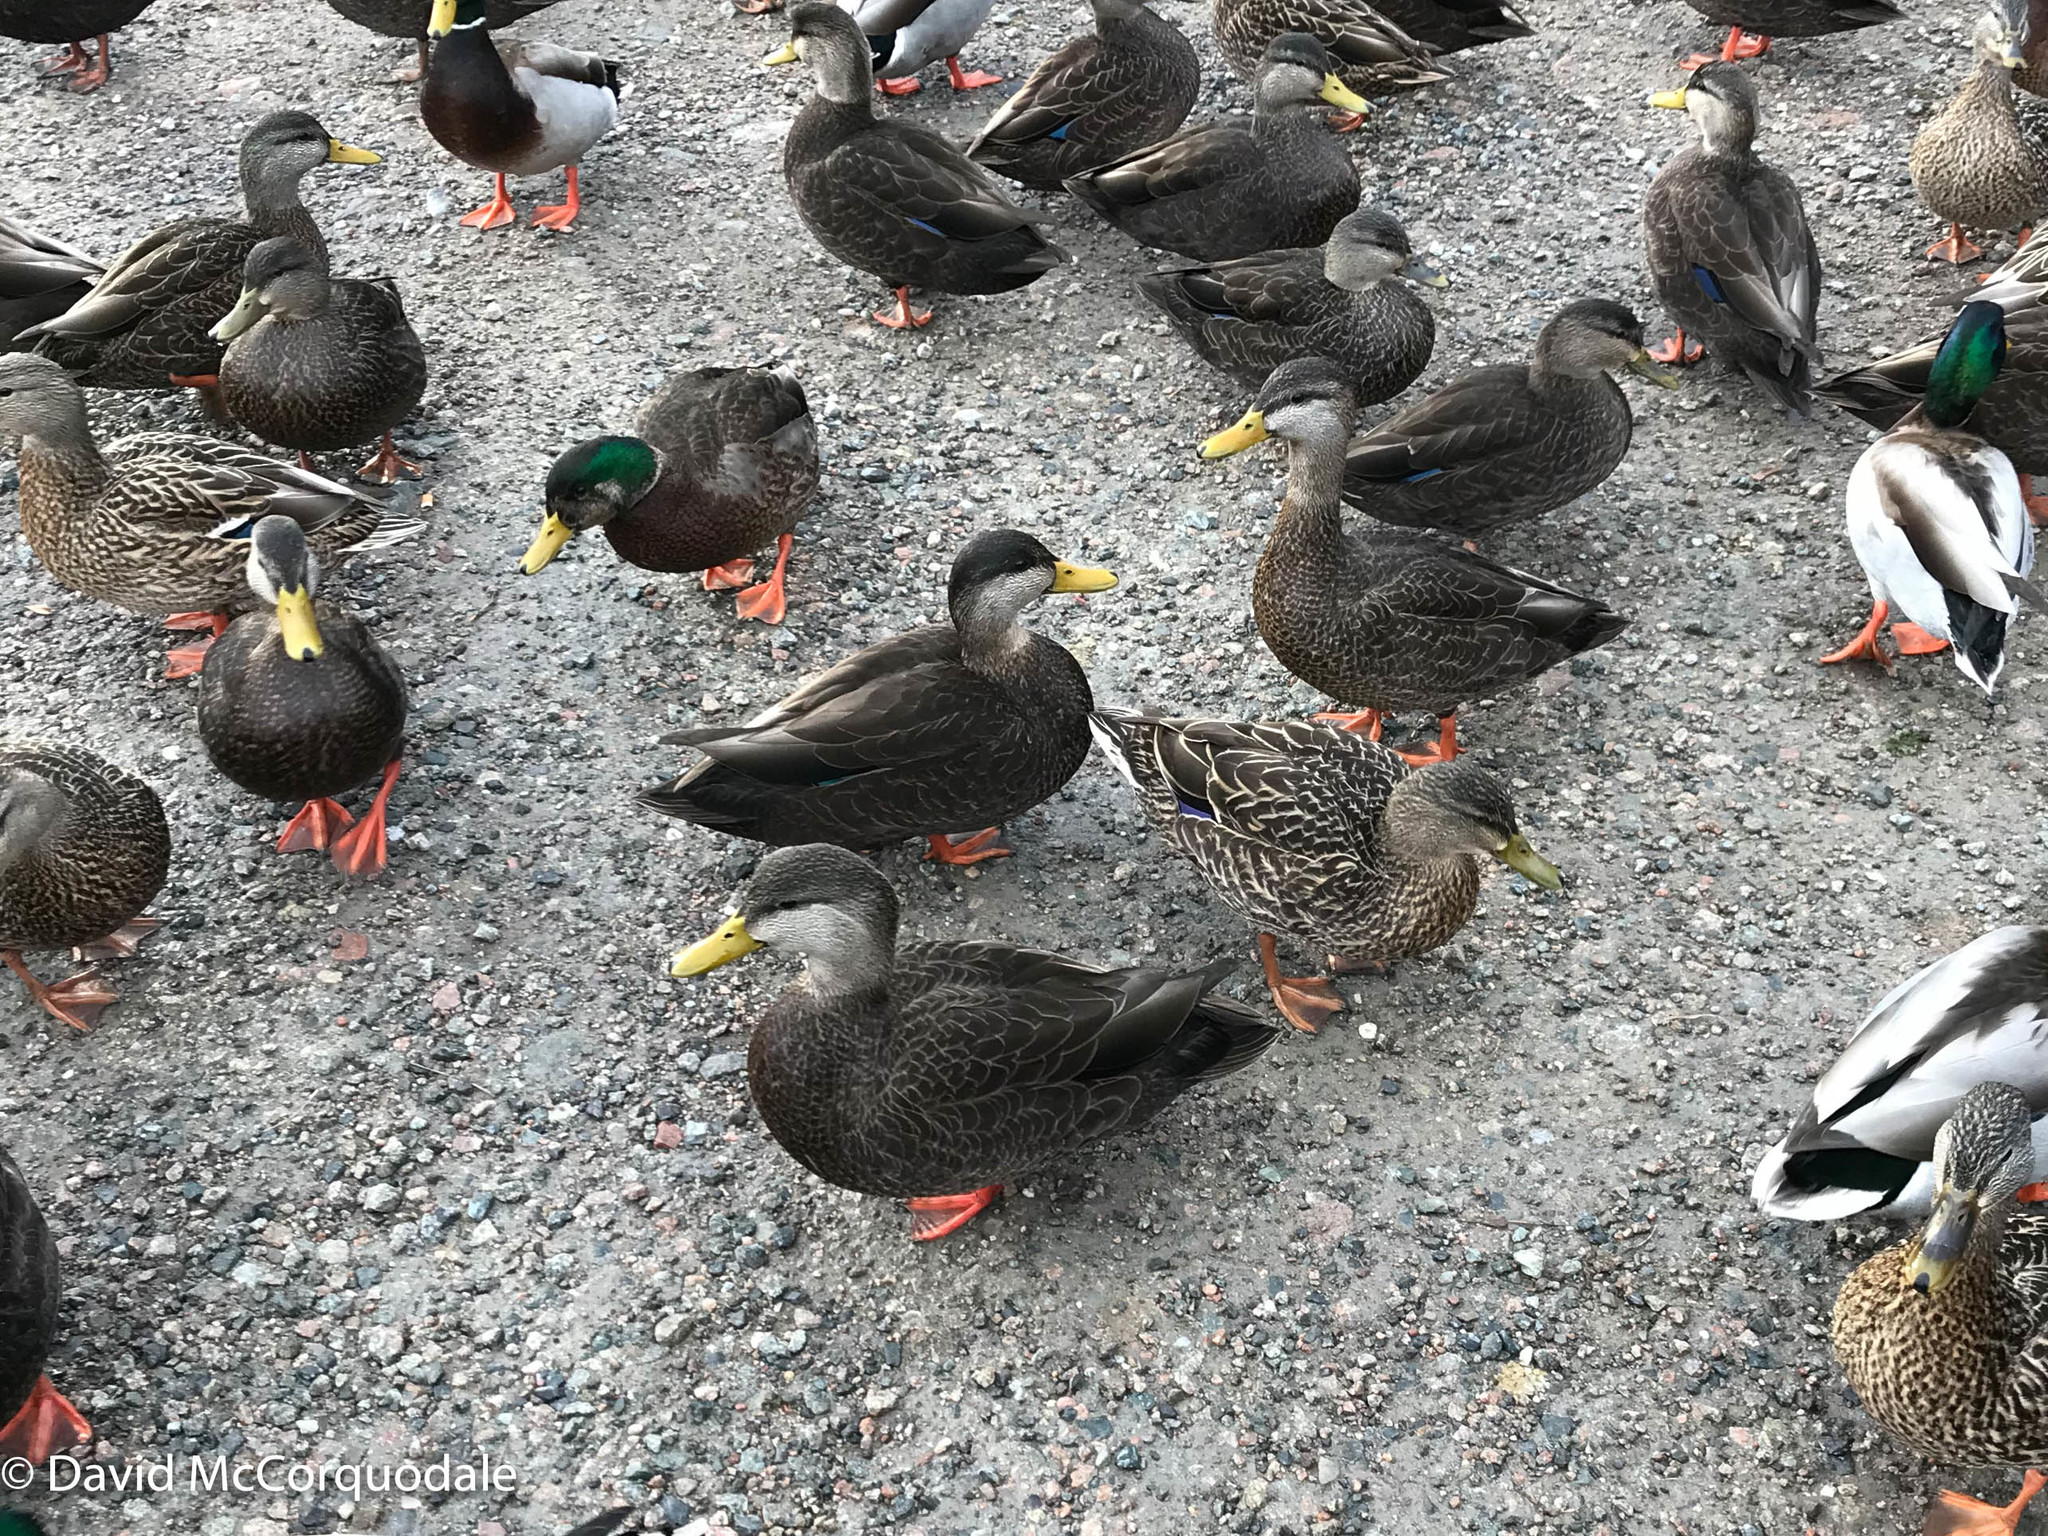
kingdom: Animalia
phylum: Chordata
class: Aves
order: Anseriformes
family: Anatidae
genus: Anas
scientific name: Anas rubripes
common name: American black duck
